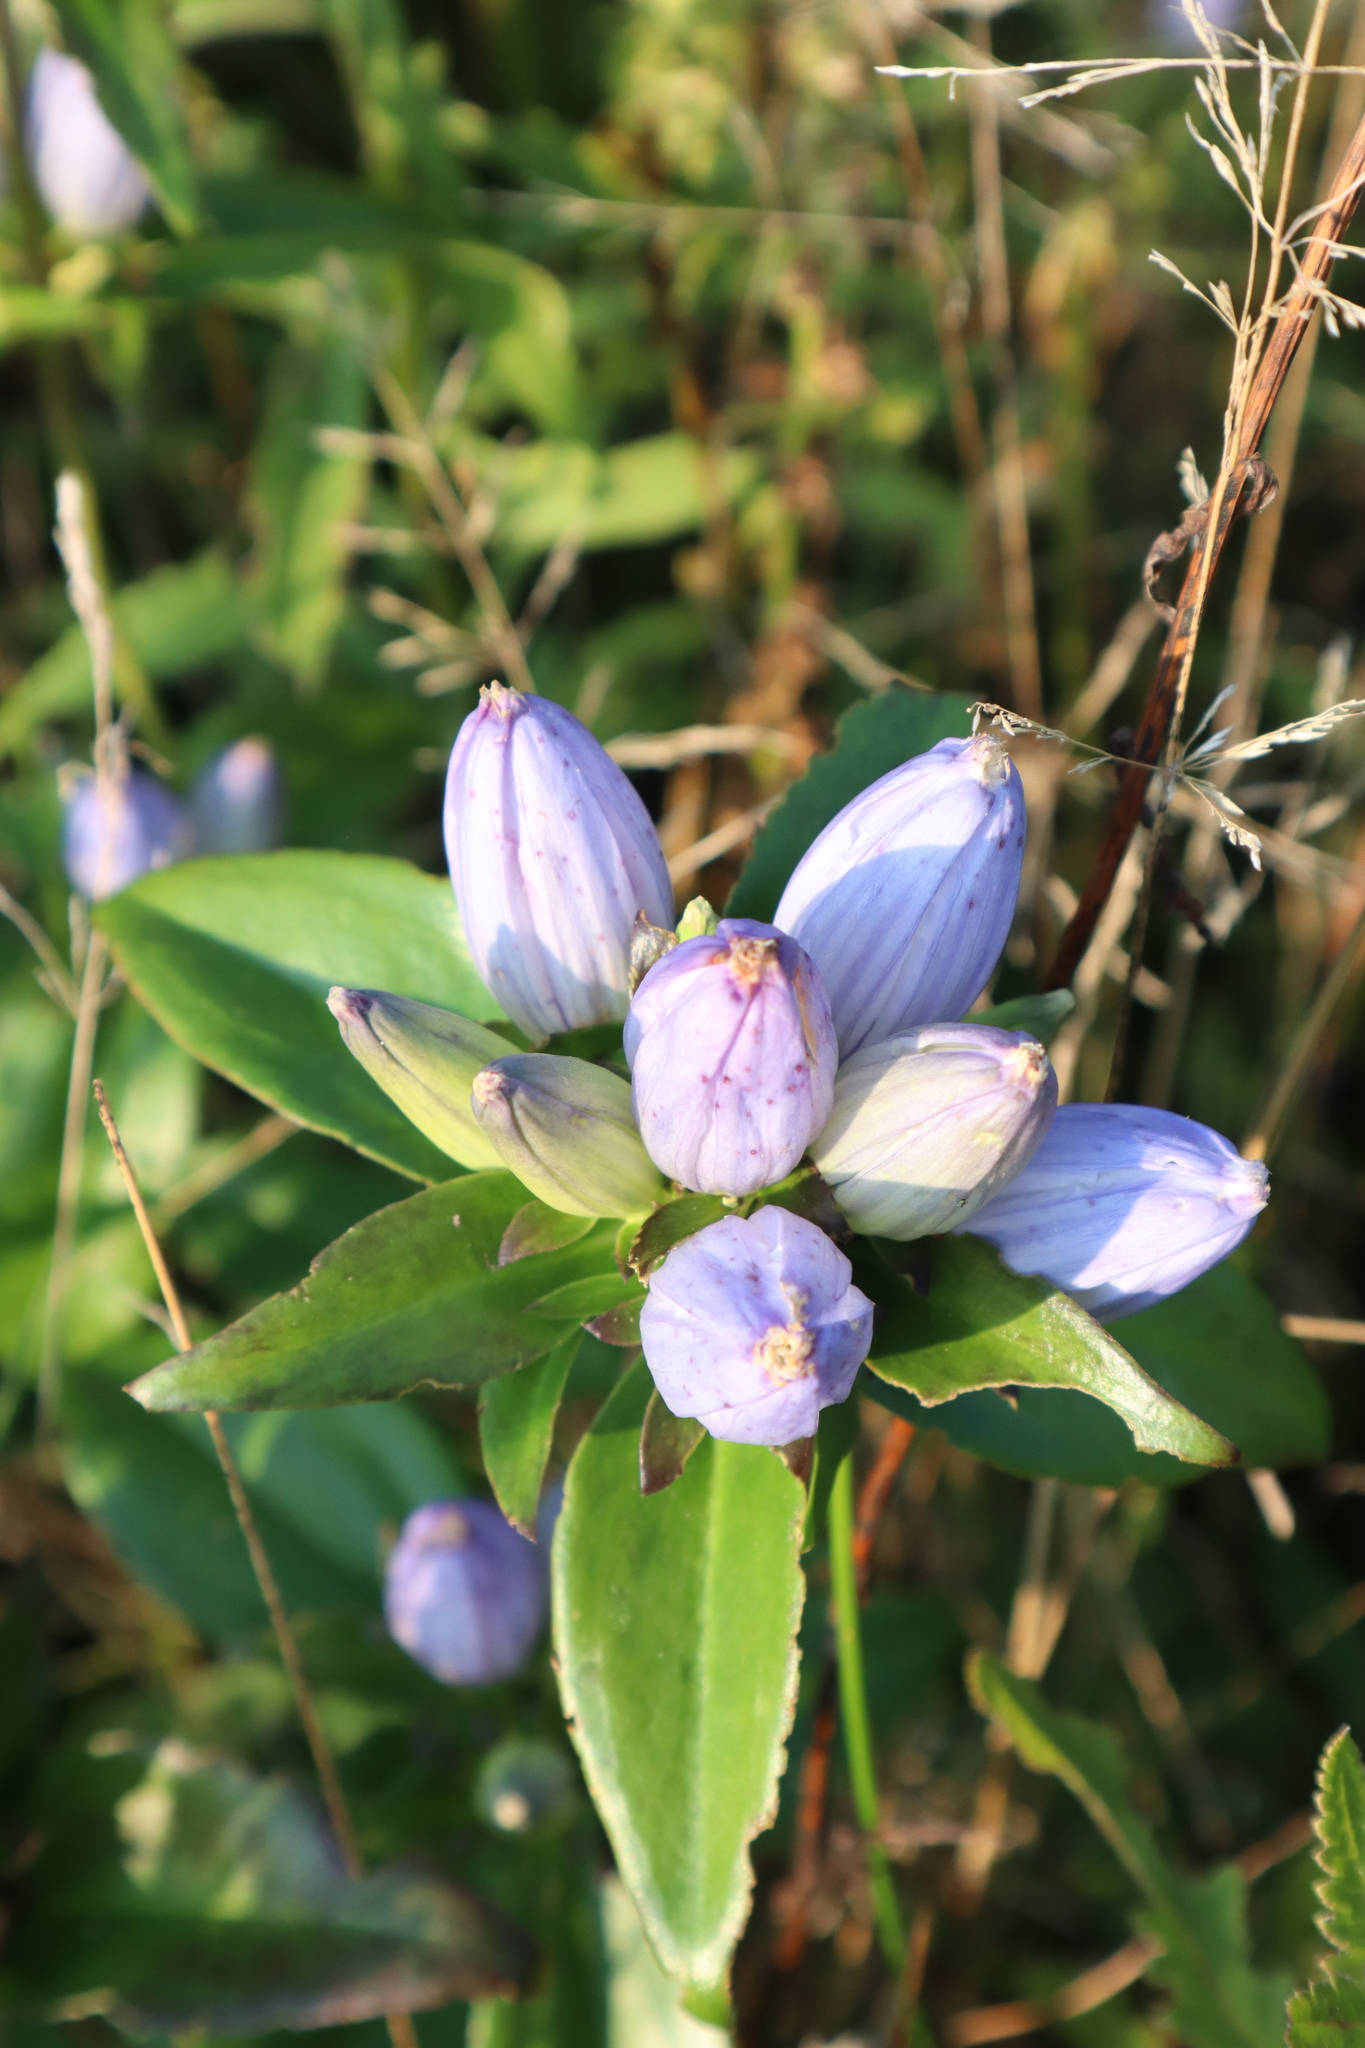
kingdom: Plantae
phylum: Tracheophyta
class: Magnoliopsida
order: Gentianales
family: Gentianaceae
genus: Gentiana
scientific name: Gentiana andrewsii
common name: Bottle gentian
